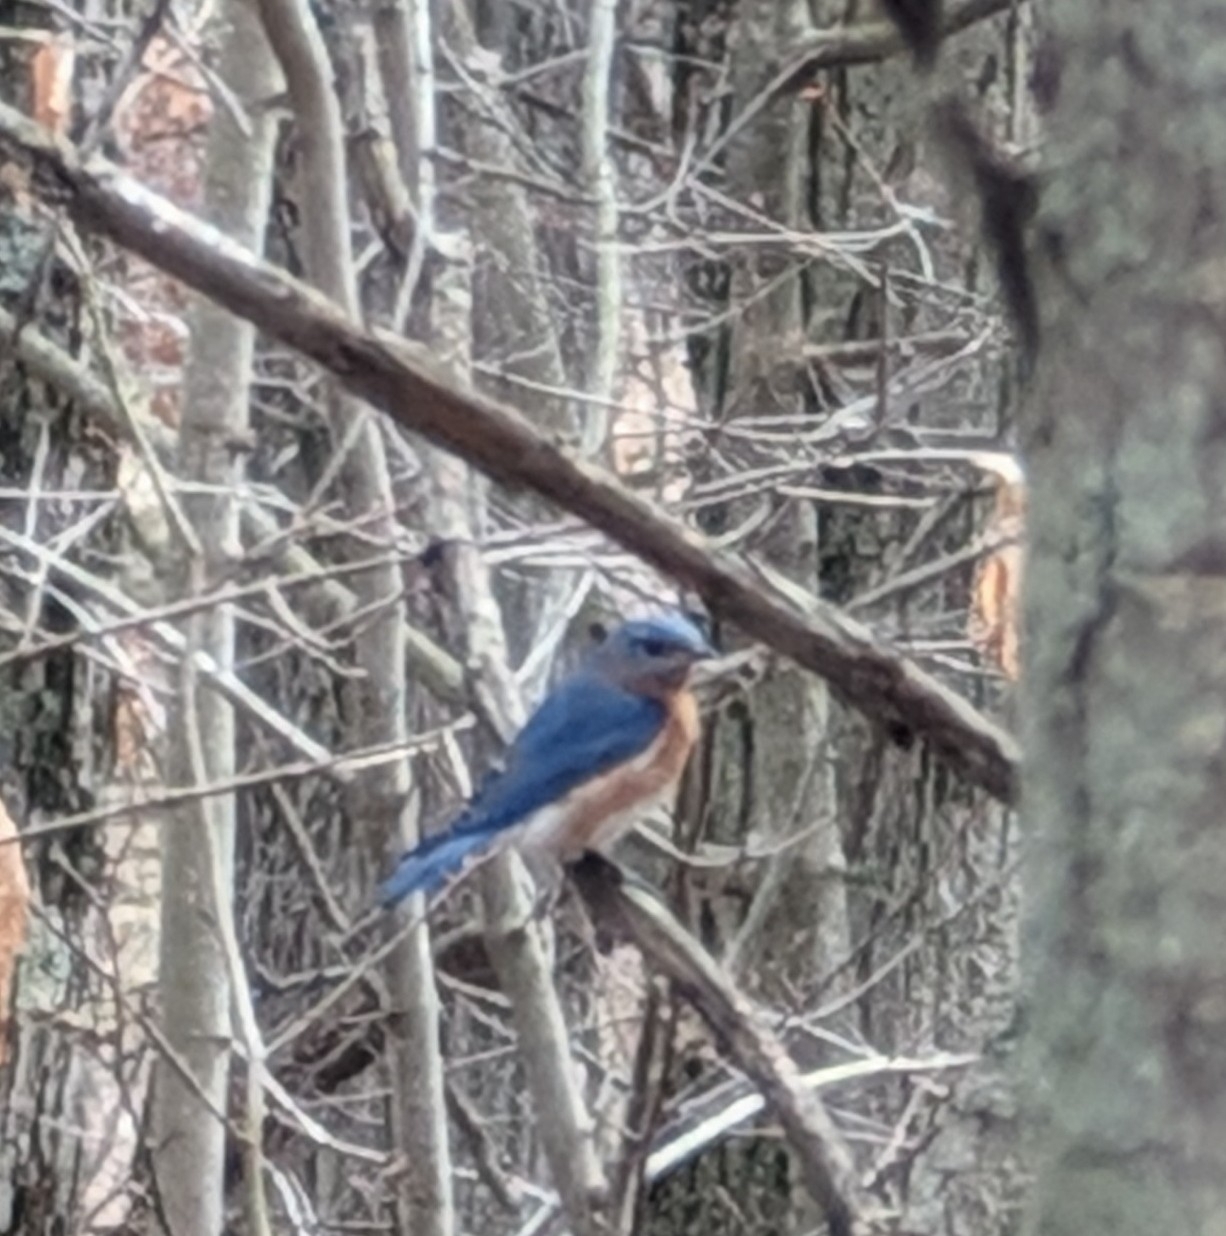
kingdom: Animalia
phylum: Chordata
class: Aves
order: Passeriformes
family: Turdidae
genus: Sialia
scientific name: Sialia sialis
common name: Eastern bluebird
